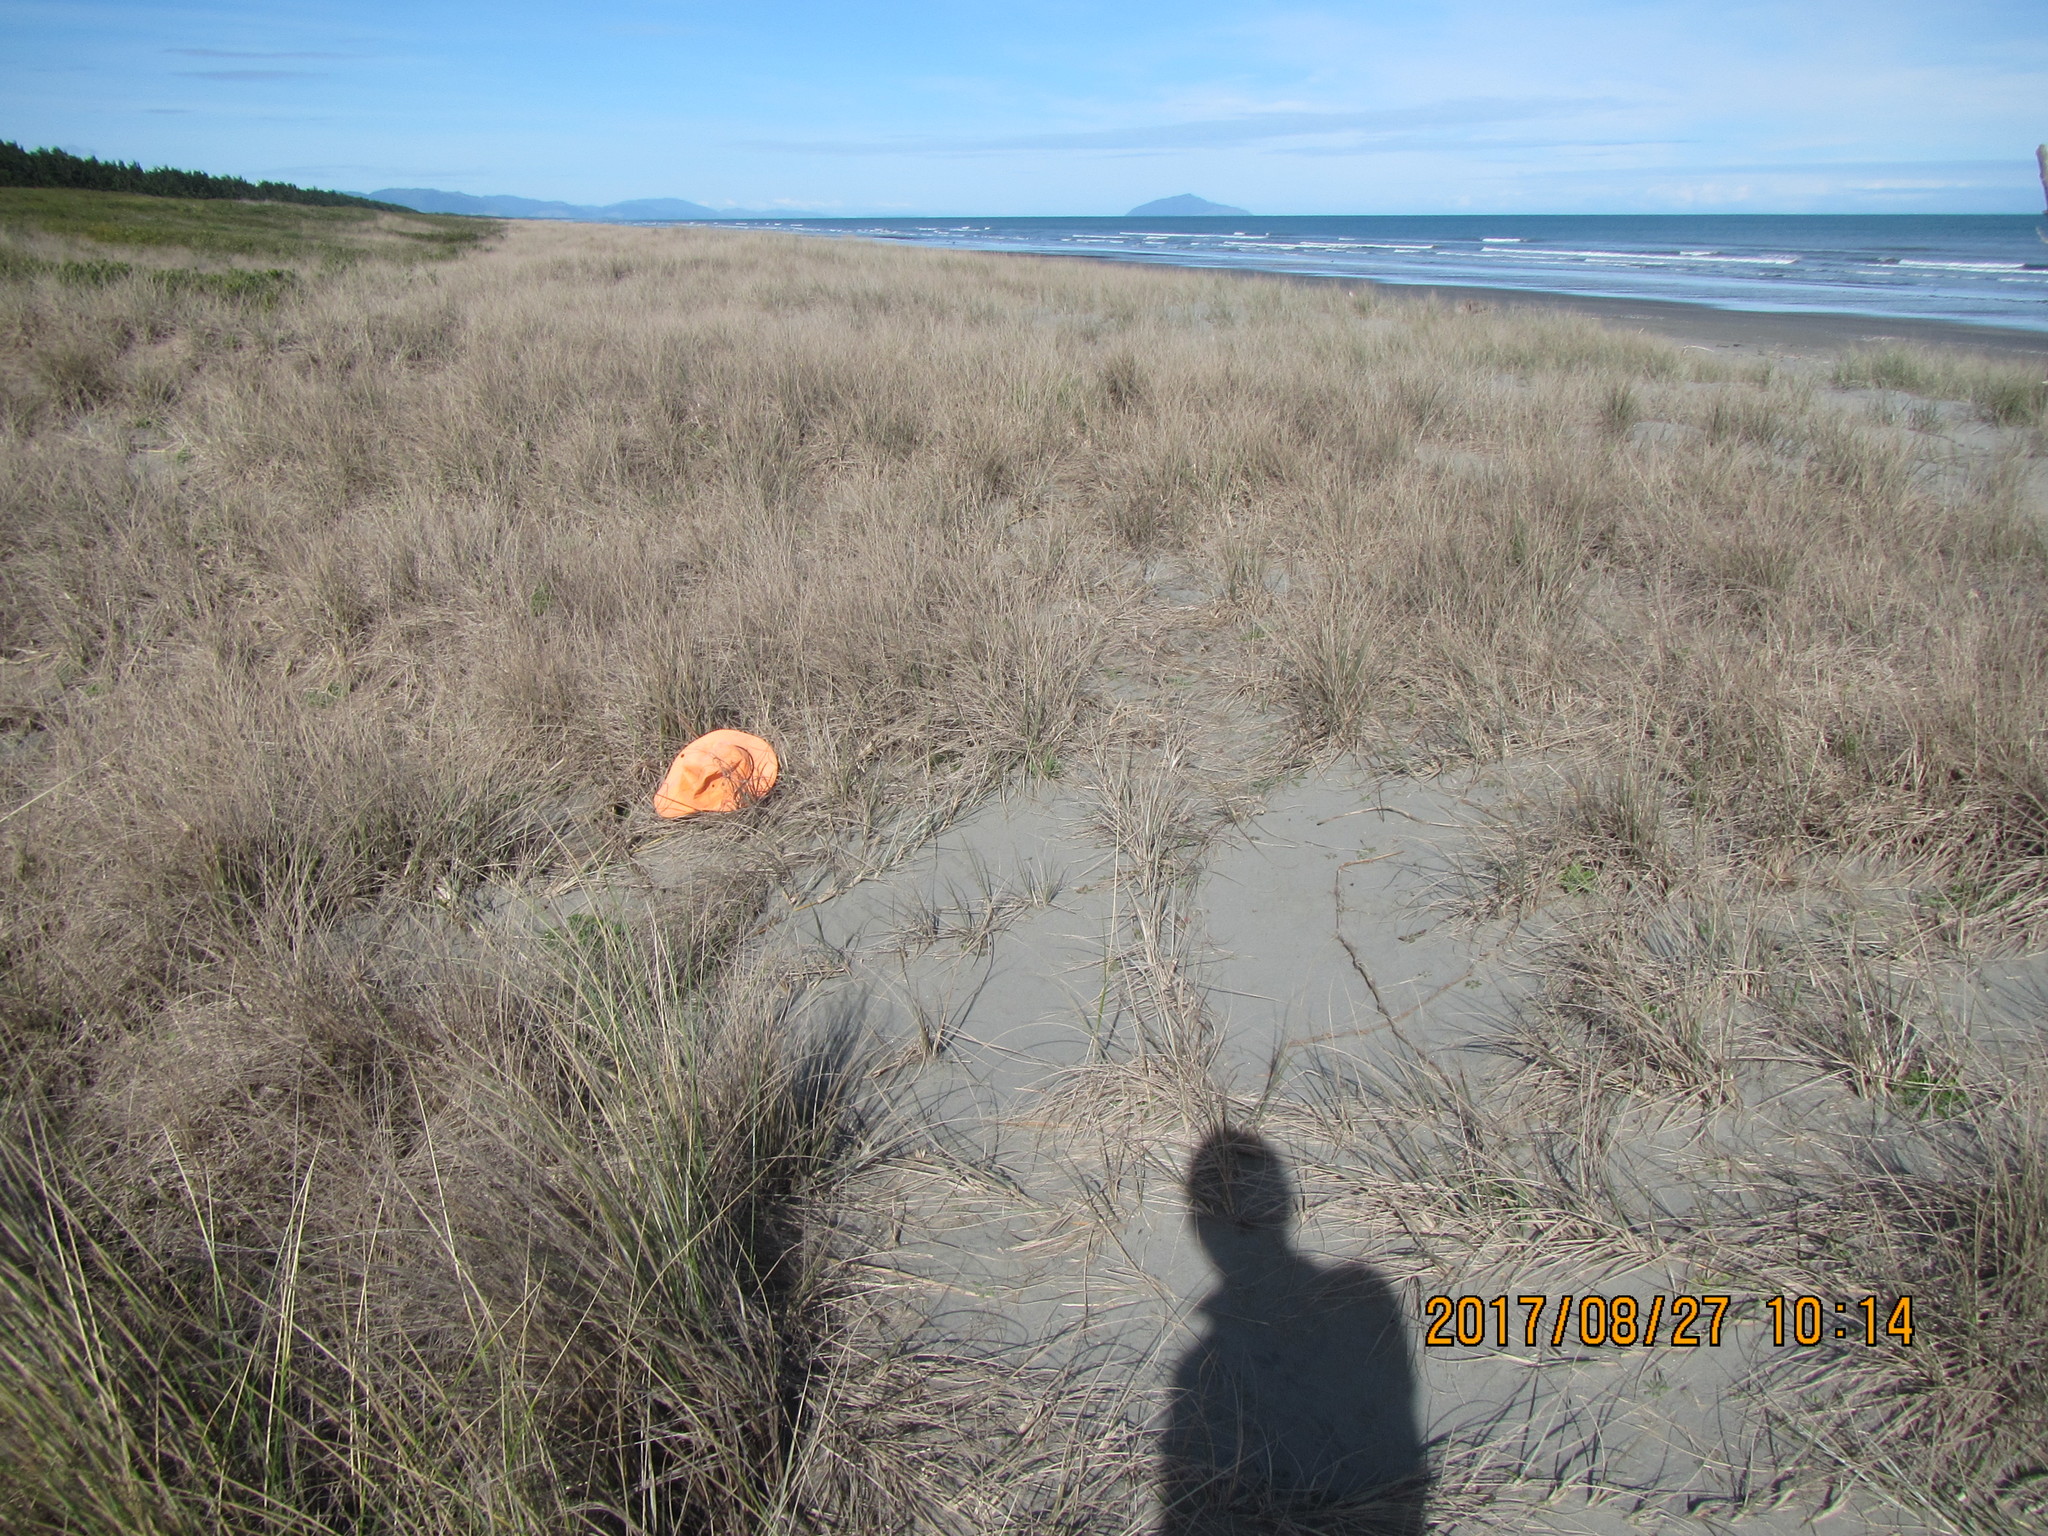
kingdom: Animalia
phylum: Arthropoda
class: Arachnida
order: Araneae
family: Theridiidae
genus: Steatoda
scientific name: Steatoda lepida
